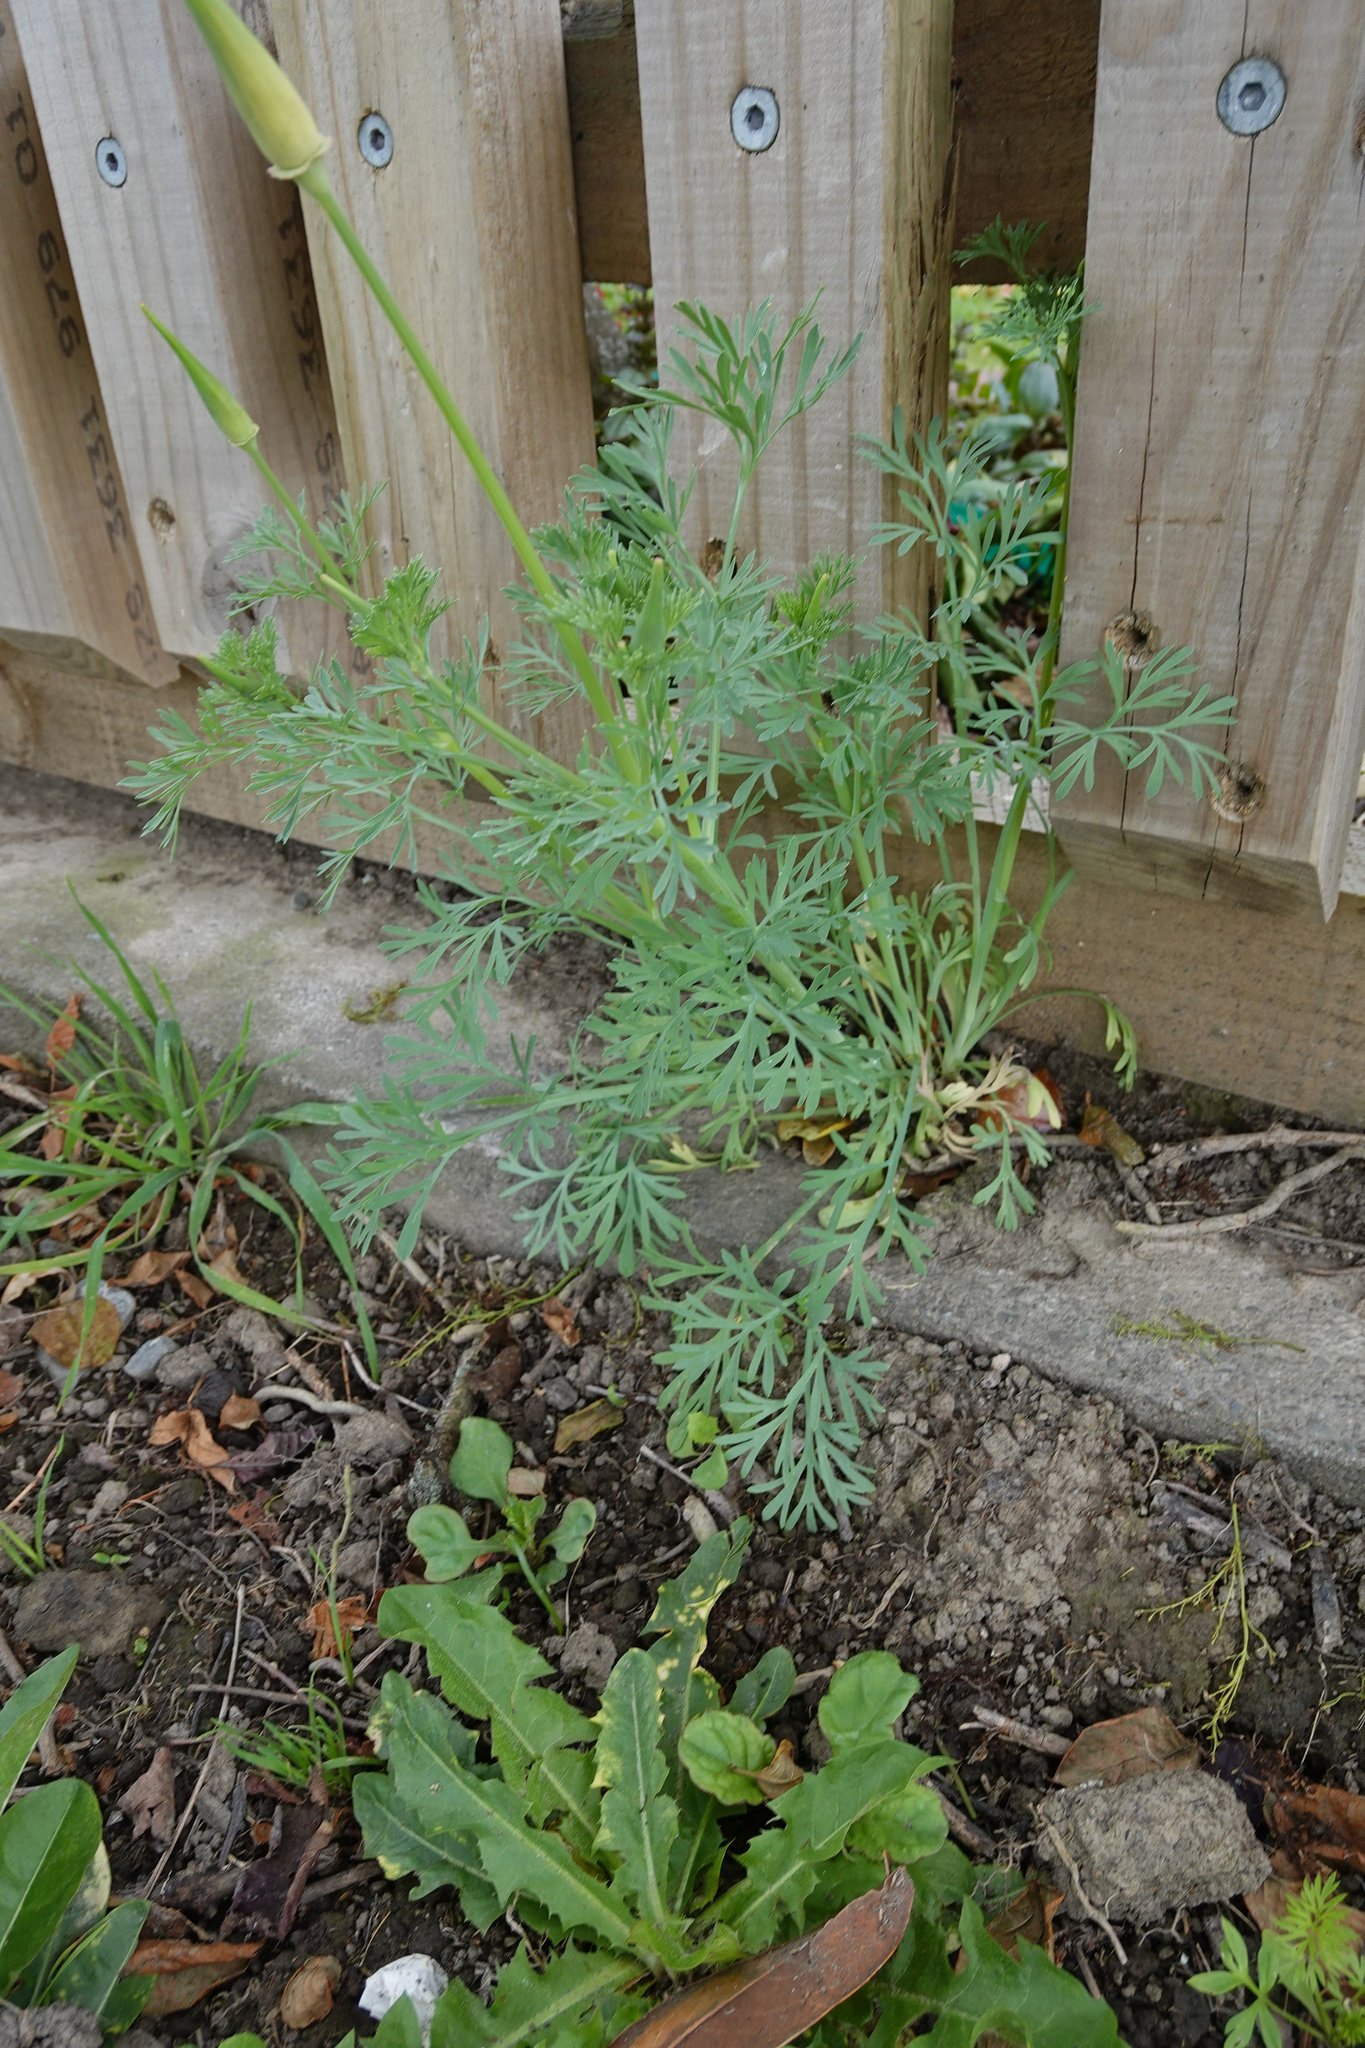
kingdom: Plantae
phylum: Tracheophyta
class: Magnoliopsida
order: Ranunculales
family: Papaveraceae
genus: Eschscholzia
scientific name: Eschscholzia californica
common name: California poppy
